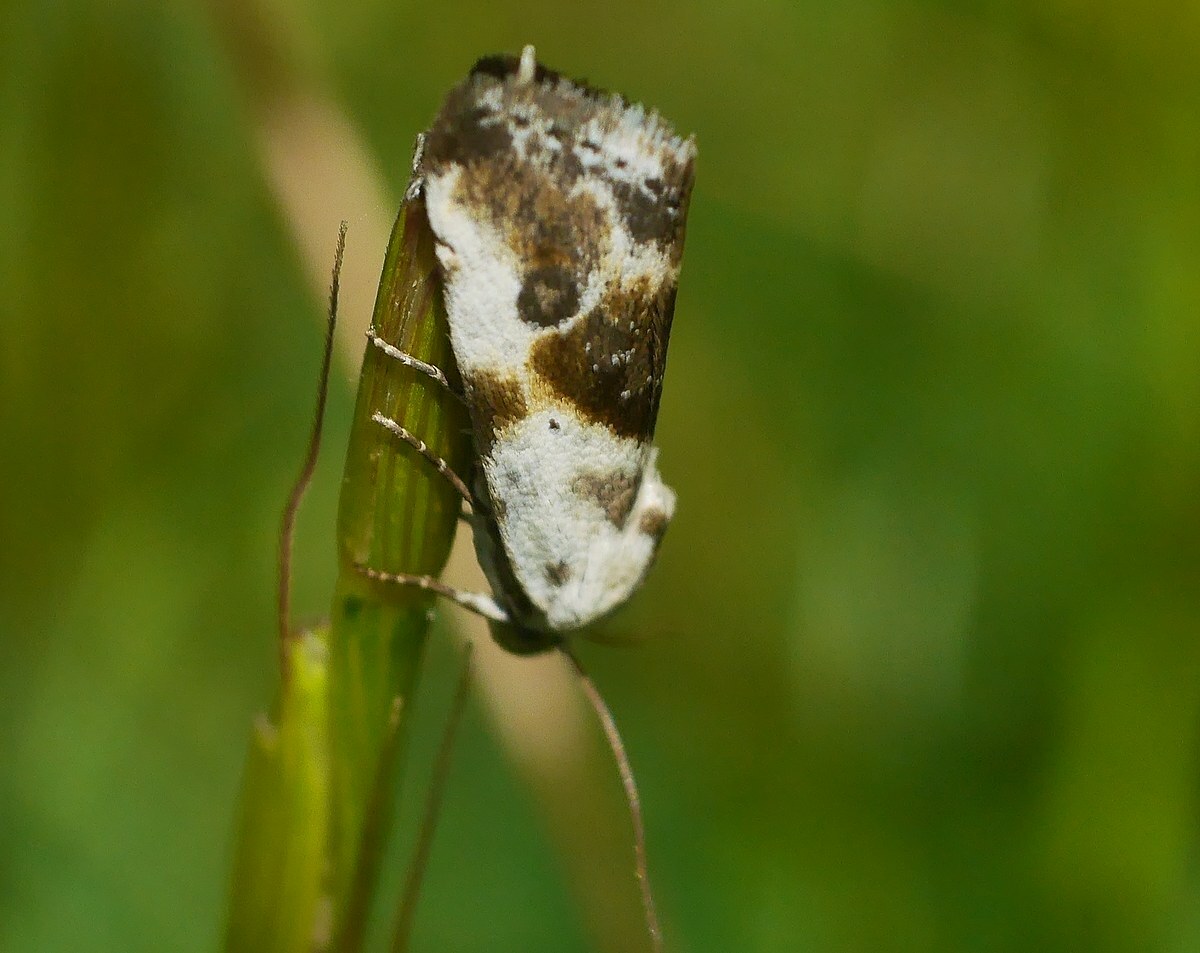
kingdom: Animalia
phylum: Arthropoda
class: Insecta
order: Lepidoptera
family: Noctuidae
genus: Acontia
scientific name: Acontia candefacta
